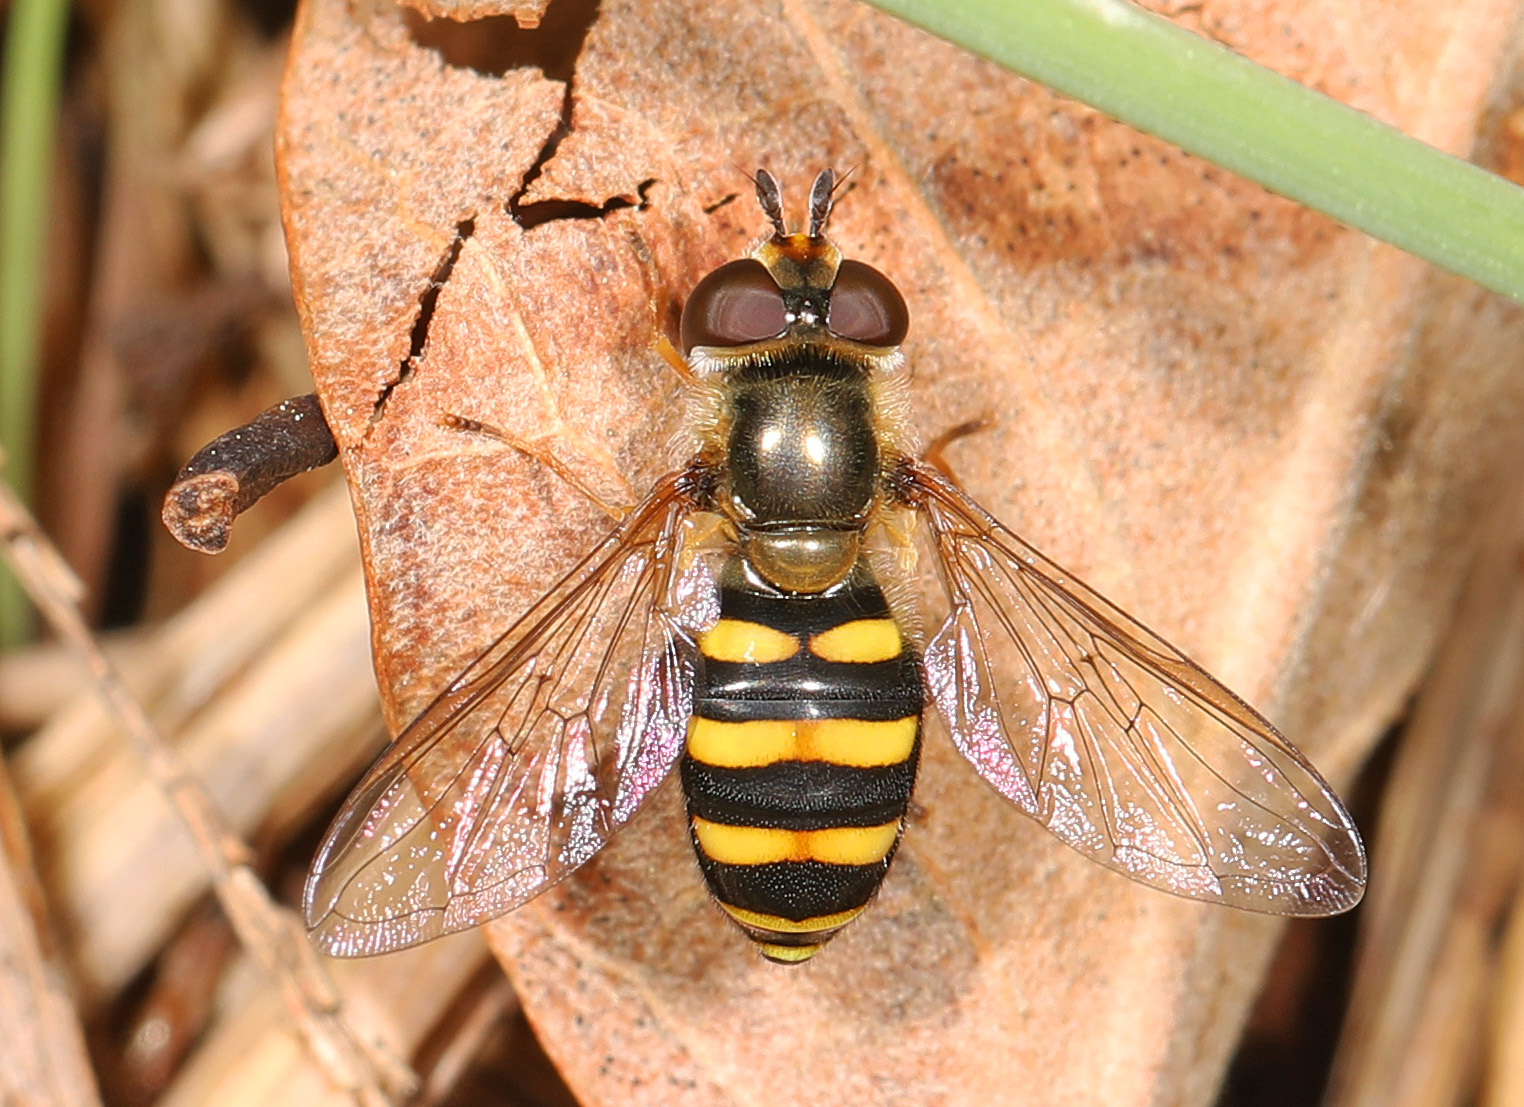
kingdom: Animalia
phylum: Arthropoda
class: Insecta
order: Diptera
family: Syrphidae
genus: Eupeodes
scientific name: Eupeodes
